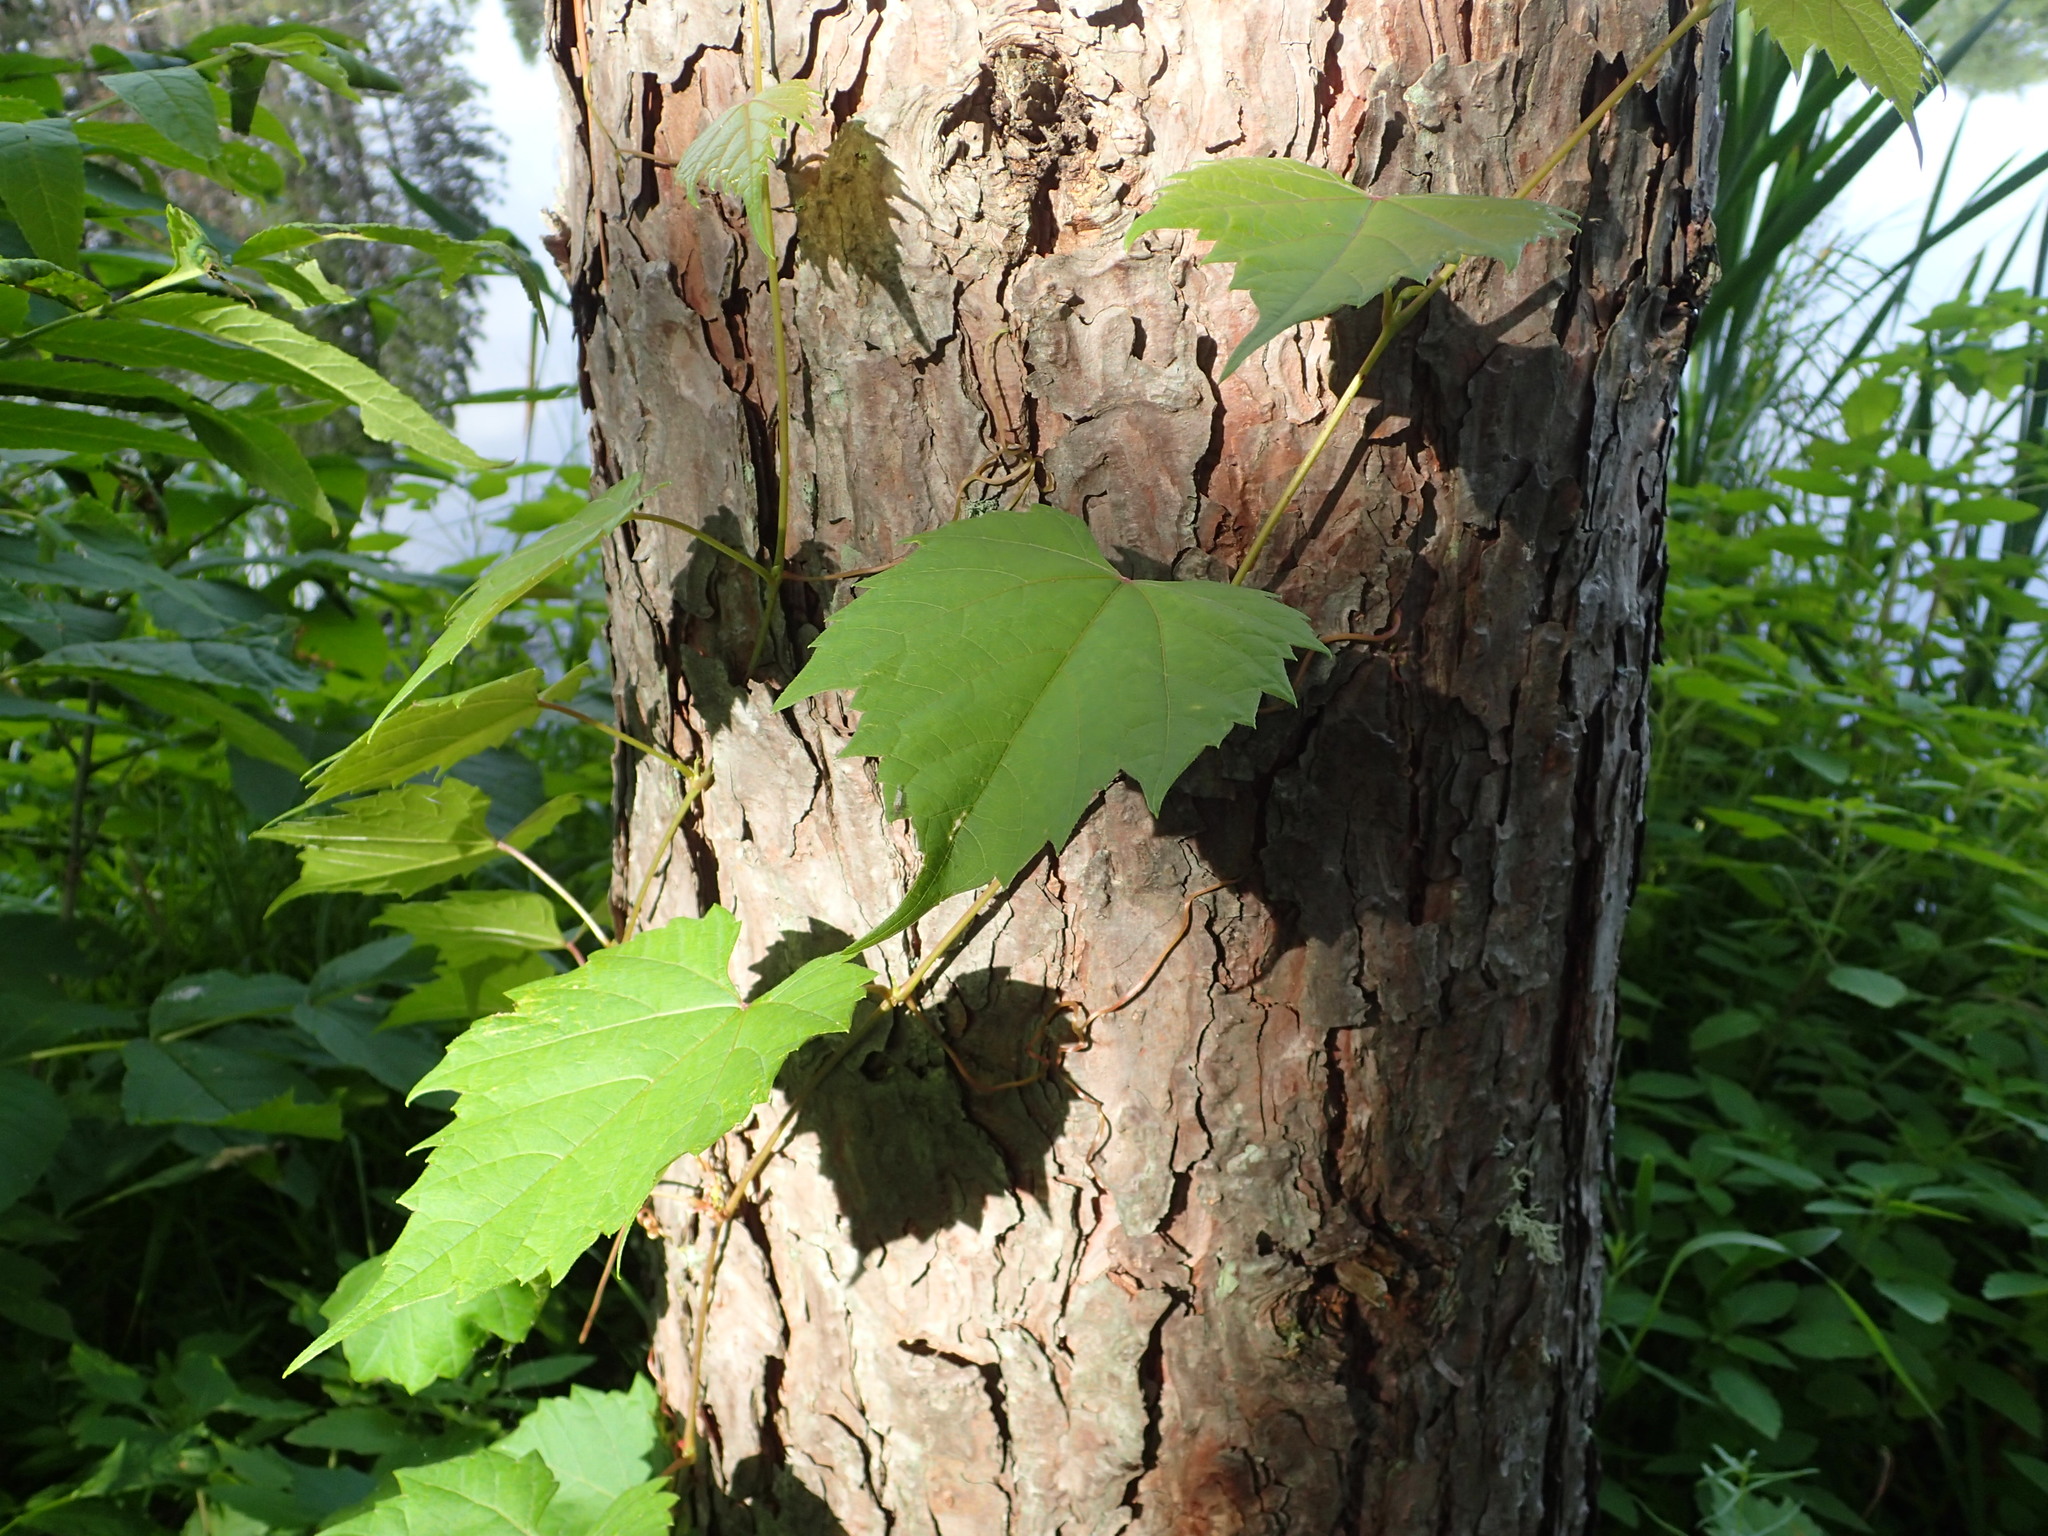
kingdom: Plantae
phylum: Tracheophyta
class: Magnoliopsida
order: Vitales
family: Vitaceae
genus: Vitis
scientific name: Vitis riparia
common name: Frost grape
